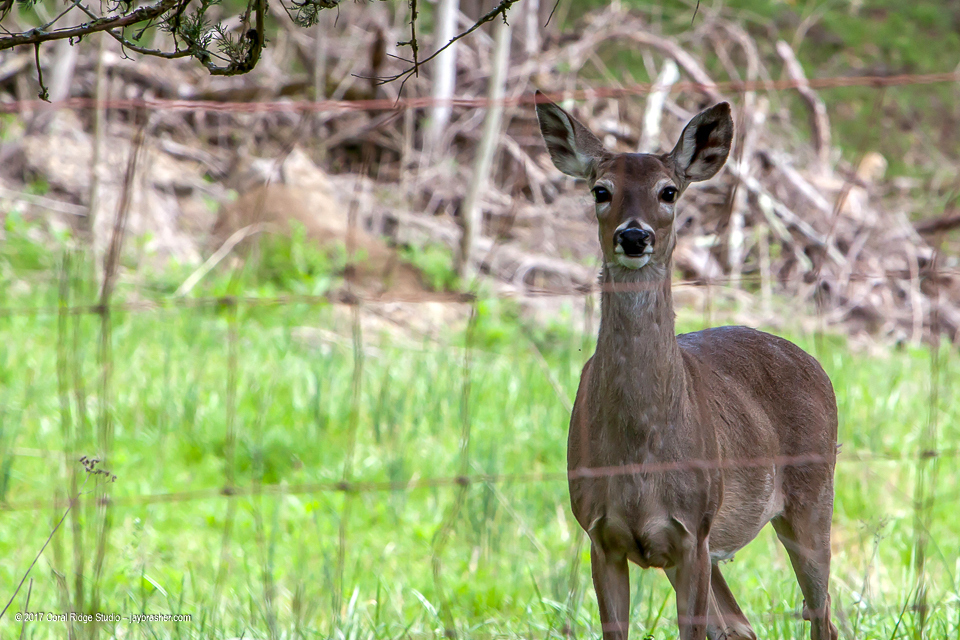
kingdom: Animalia
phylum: Chordata
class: Mammalia
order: Artiodactyla
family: Cervidae
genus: Odocoileus
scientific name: Odocoileus virginianus
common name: White-tailed deer
